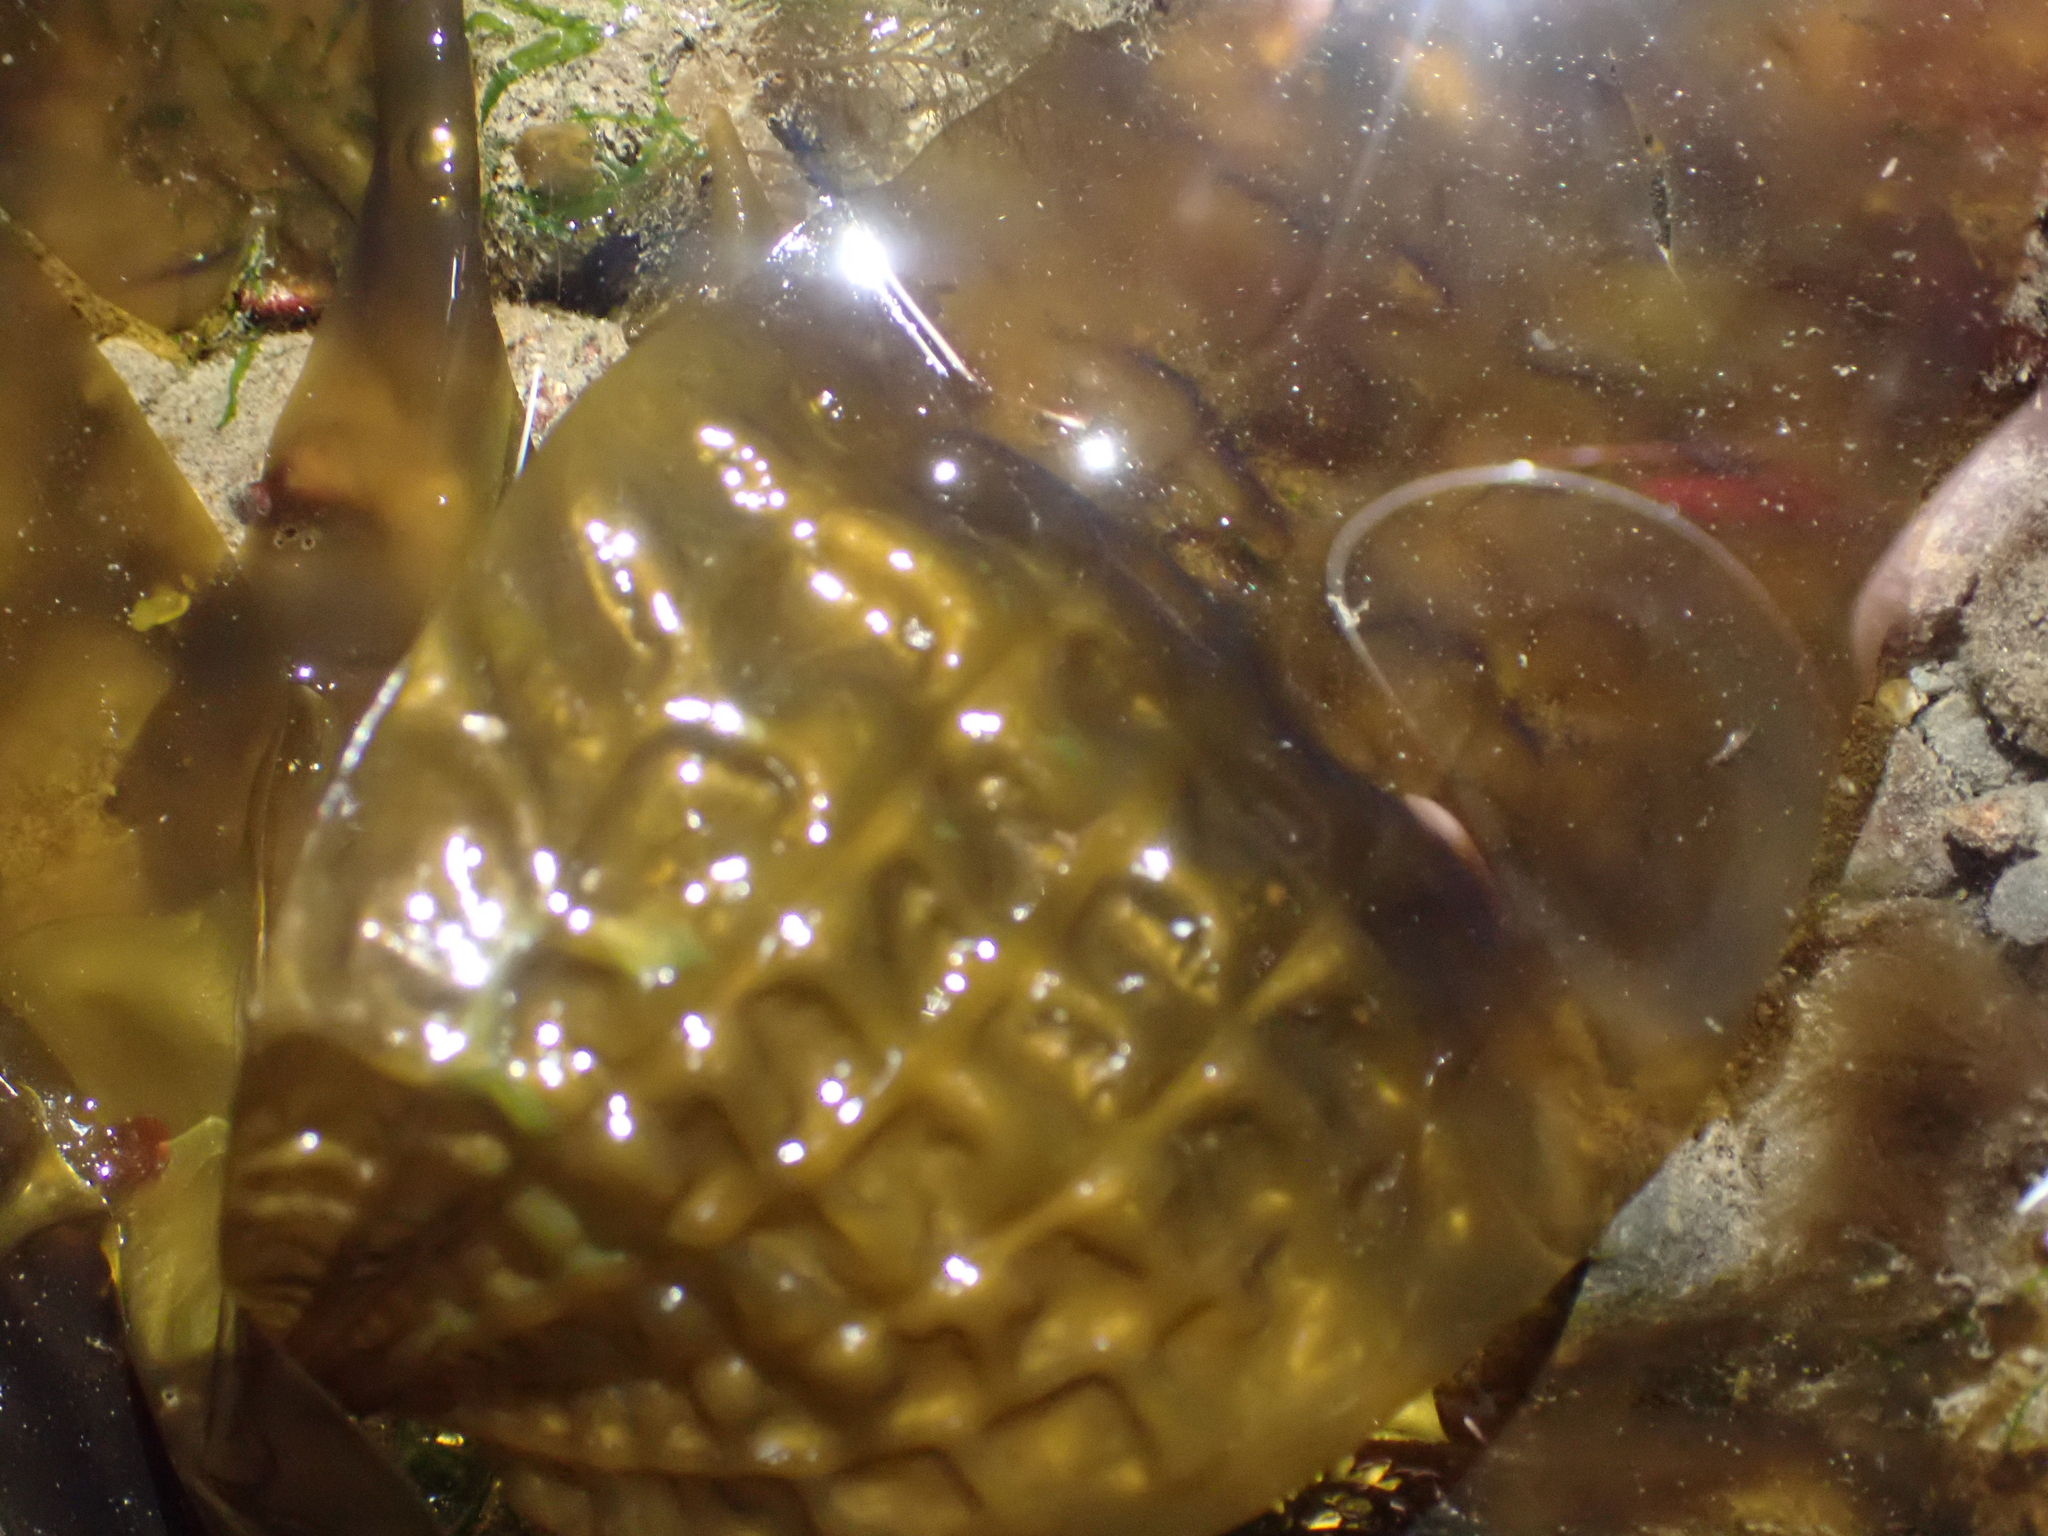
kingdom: Chromista
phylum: Ochrophyta
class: Phaeophyceae
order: Laminariales
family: Costariaceae
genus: Costaria
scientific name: Costaria costata
